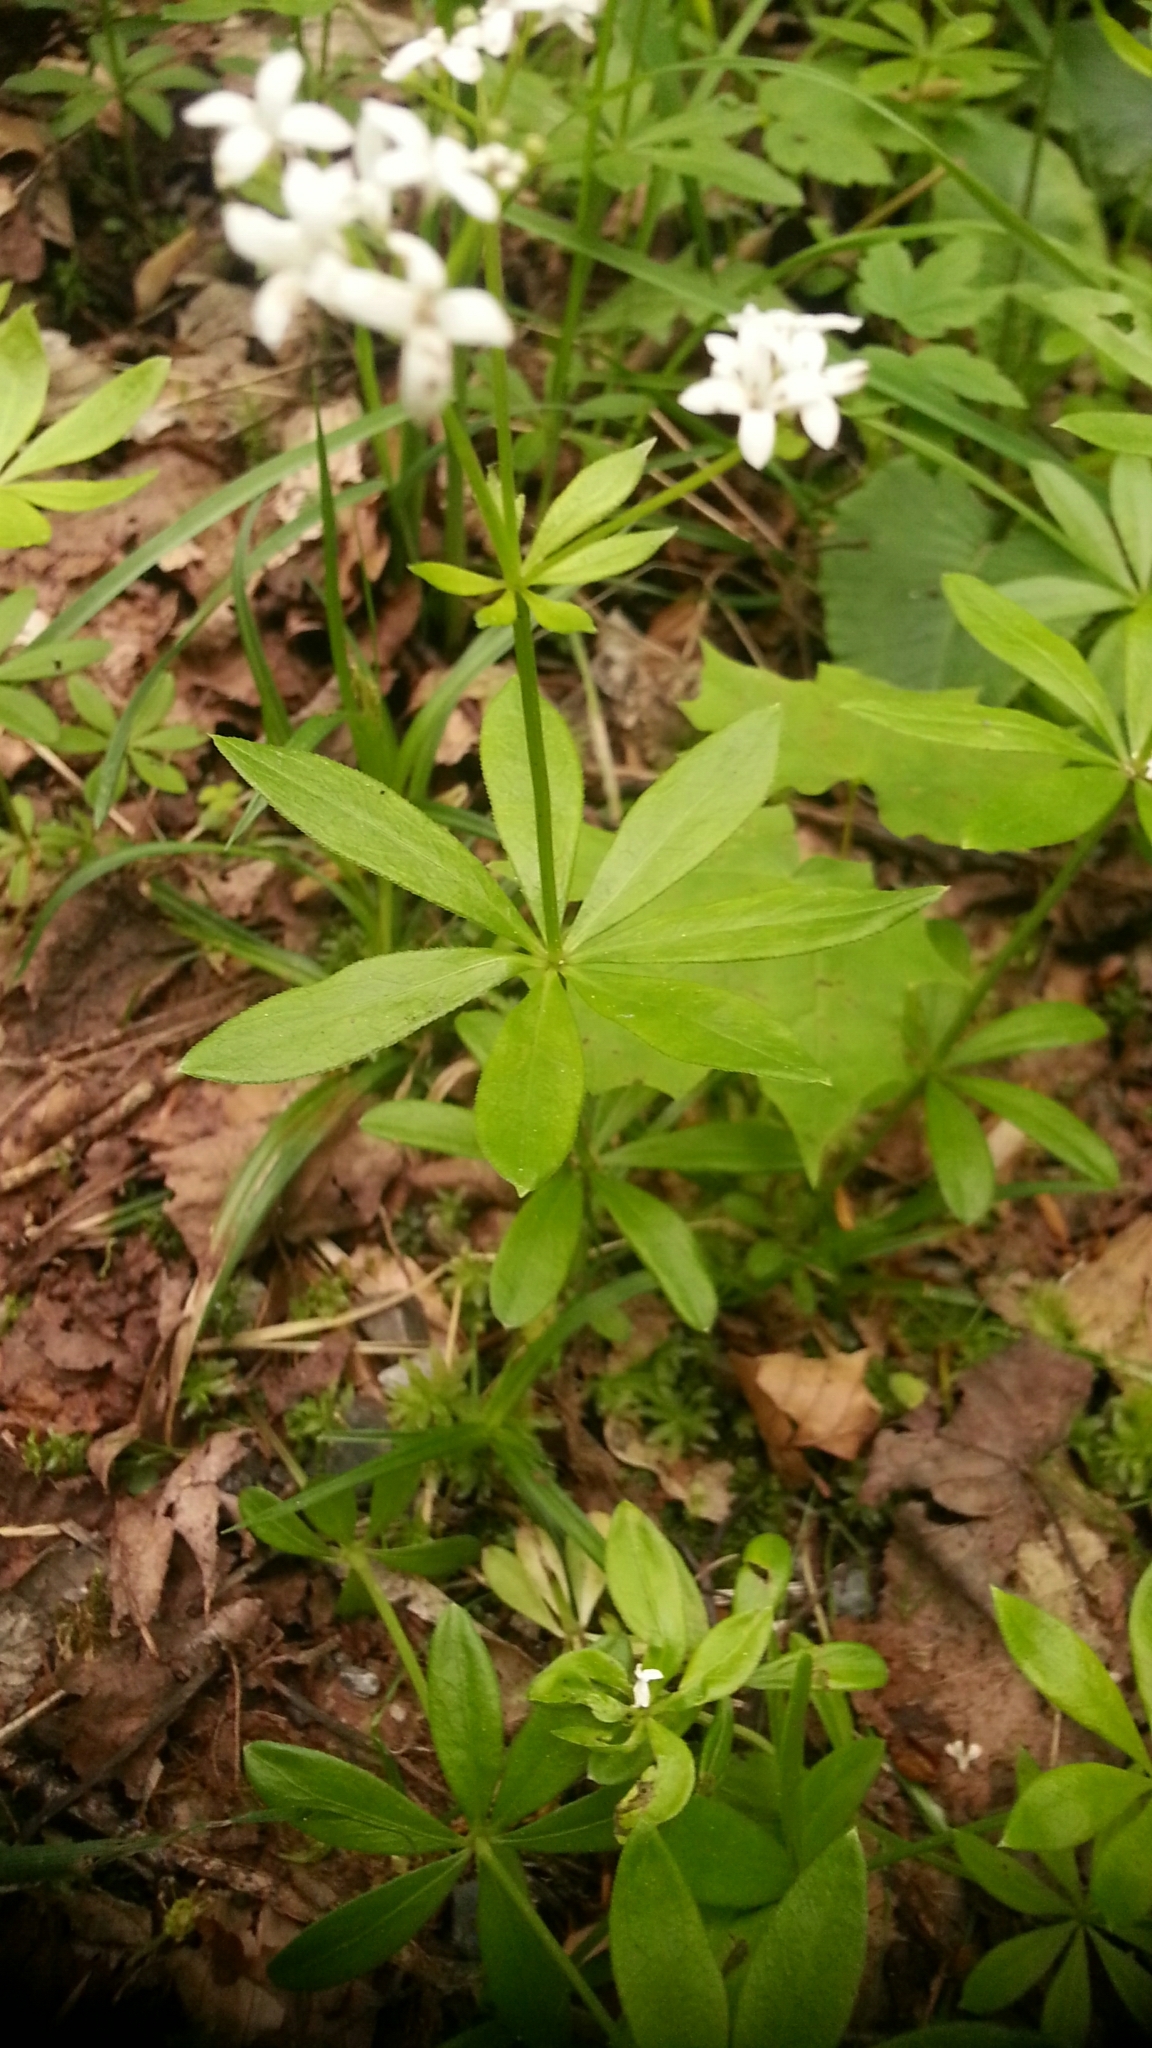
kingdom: Plantae
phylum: Tracheophyta
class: Magnoliopsida
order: Gentianales
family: Rubiaceae
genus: Galium
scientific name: Galium odoratum
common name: Sweet woodruff
